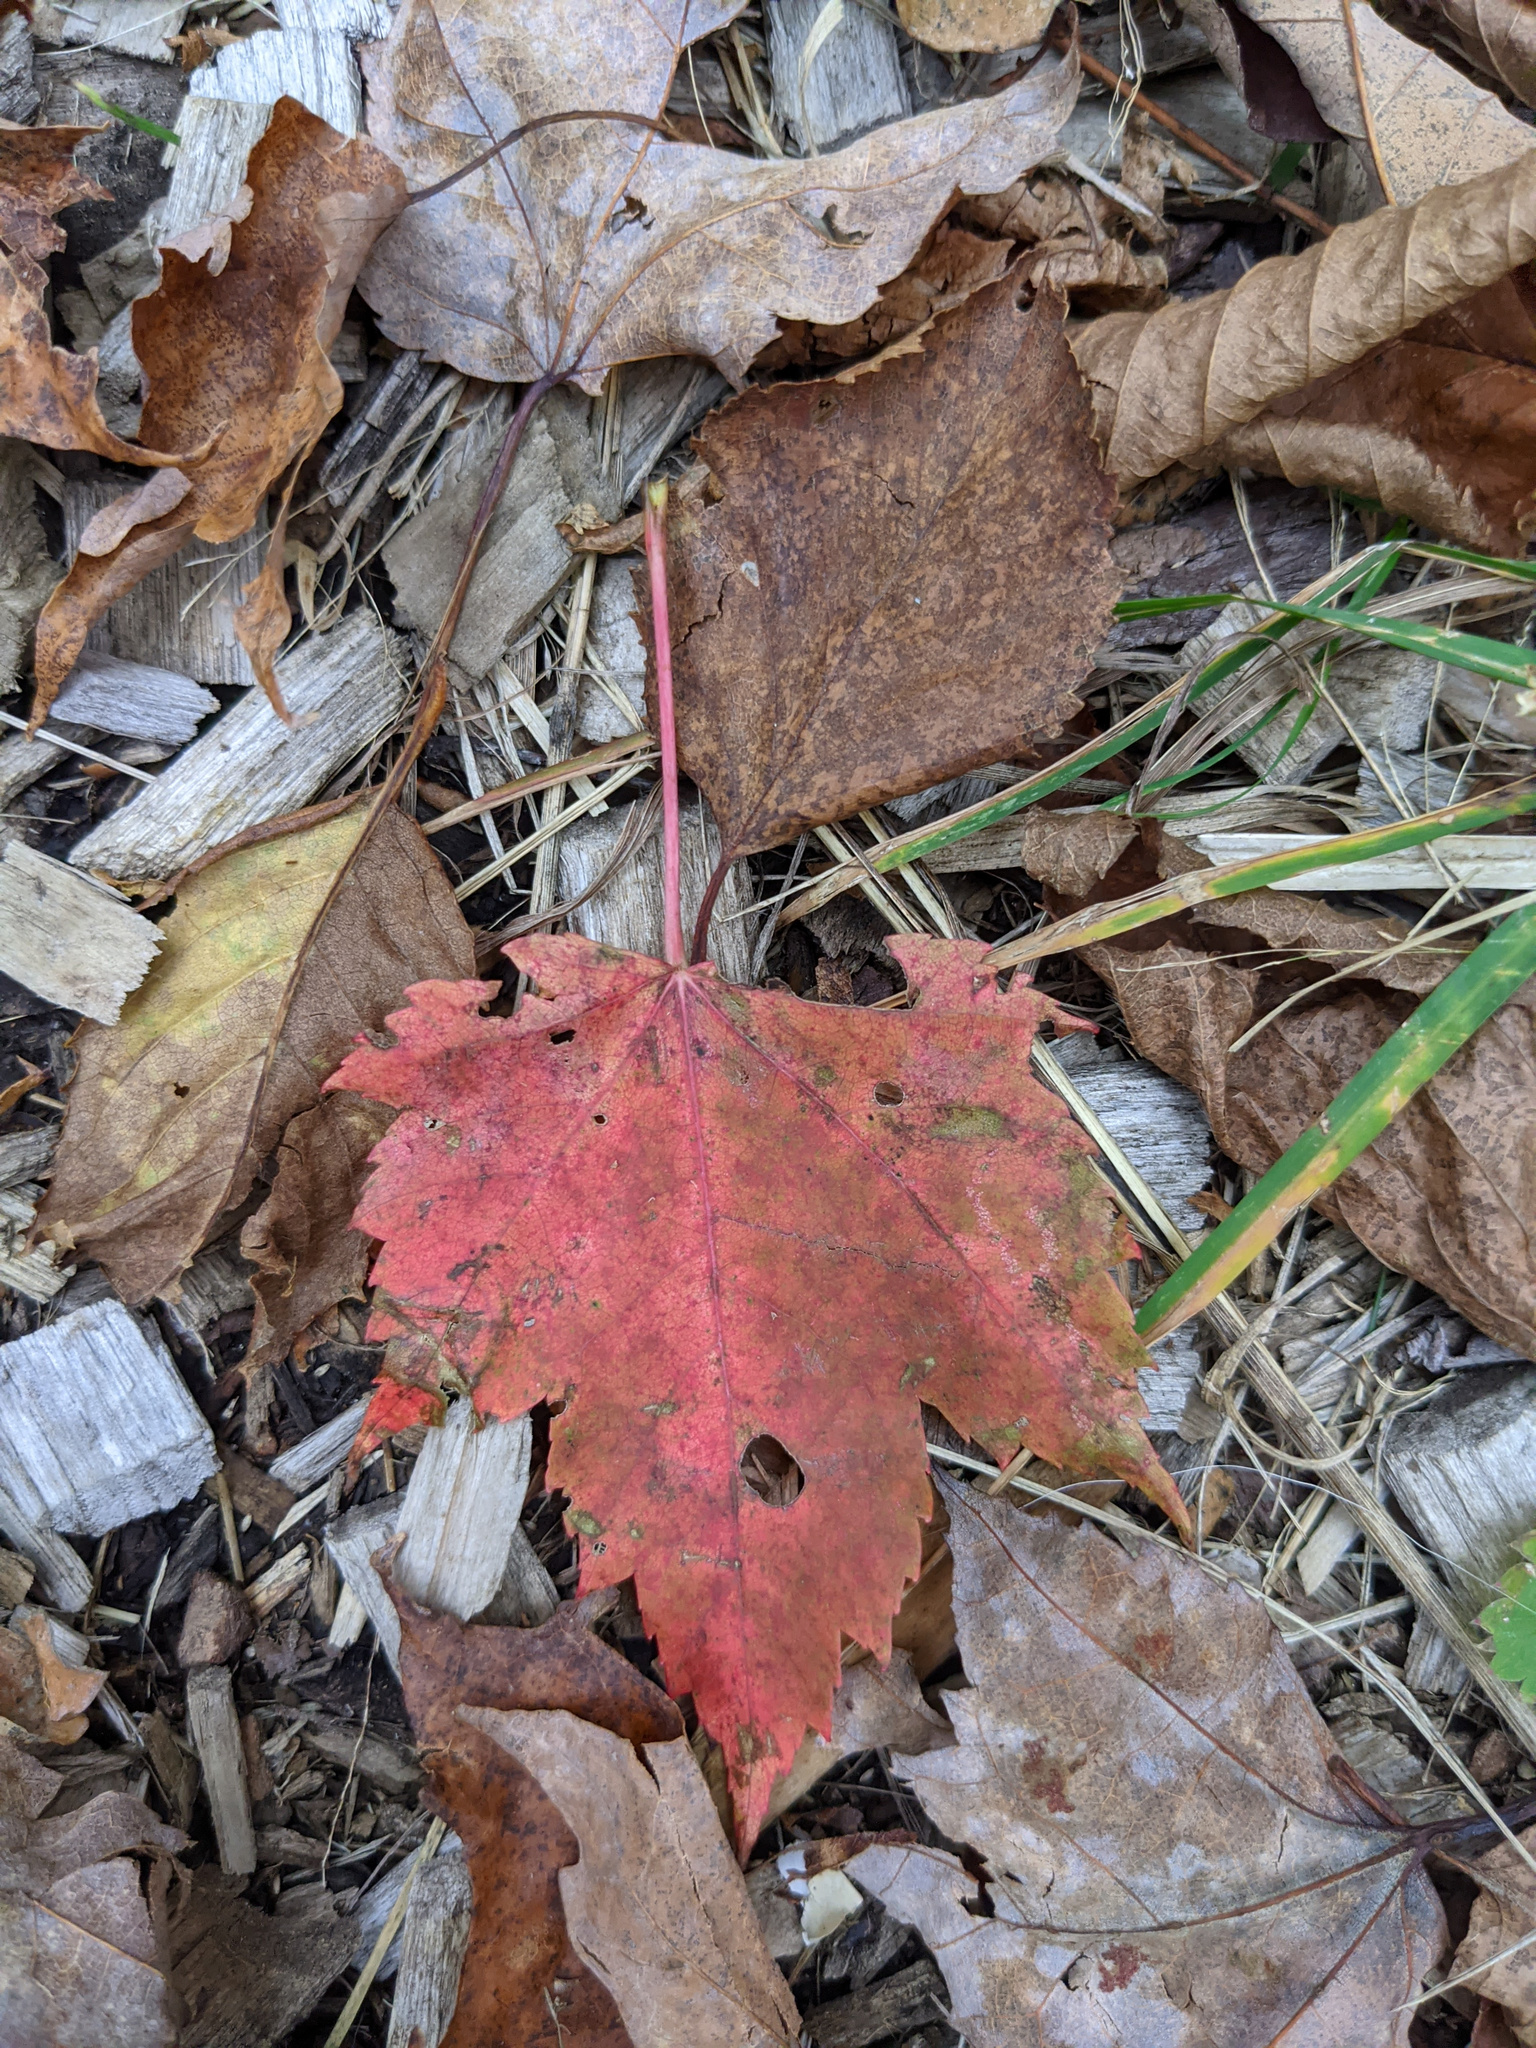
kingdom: Plantae
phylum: Tracheophyta
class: Magnoliopsida
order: Sapindales
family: Sapindaceae
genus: Acer
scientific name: Acer rubrum
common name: Red maple
